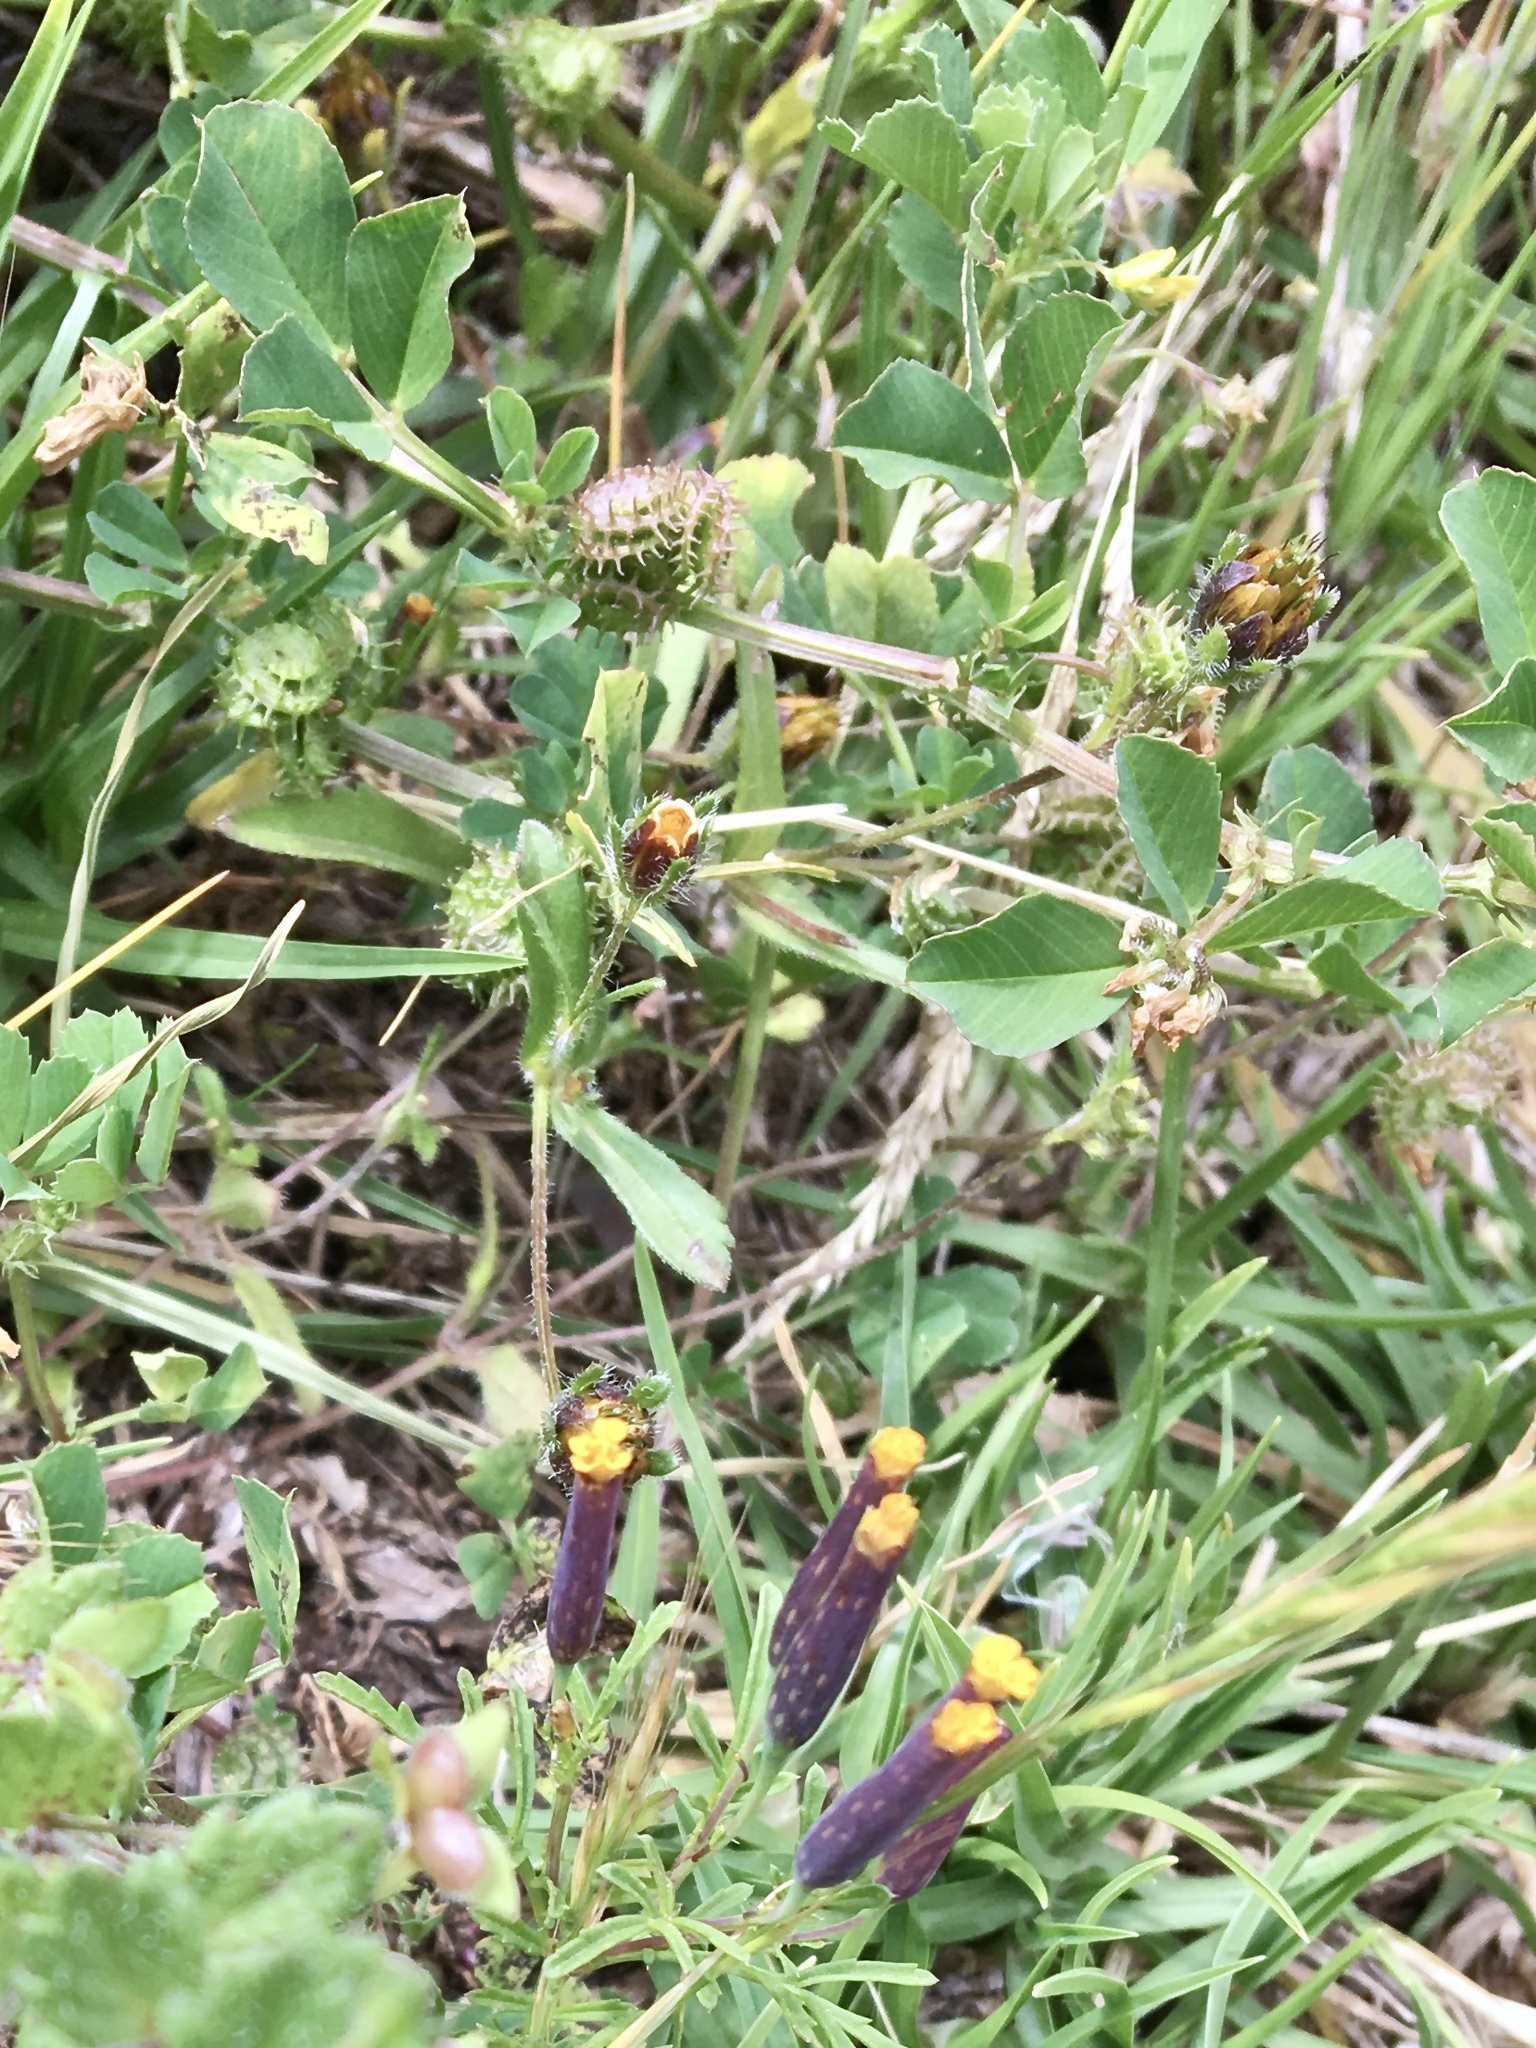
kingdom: Plantae
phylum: Tracheophyta
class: Magnoliopsida
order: Fabales
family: Fabaceae
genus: Medicago
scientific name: Medicago polymorpha
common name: Burclover
